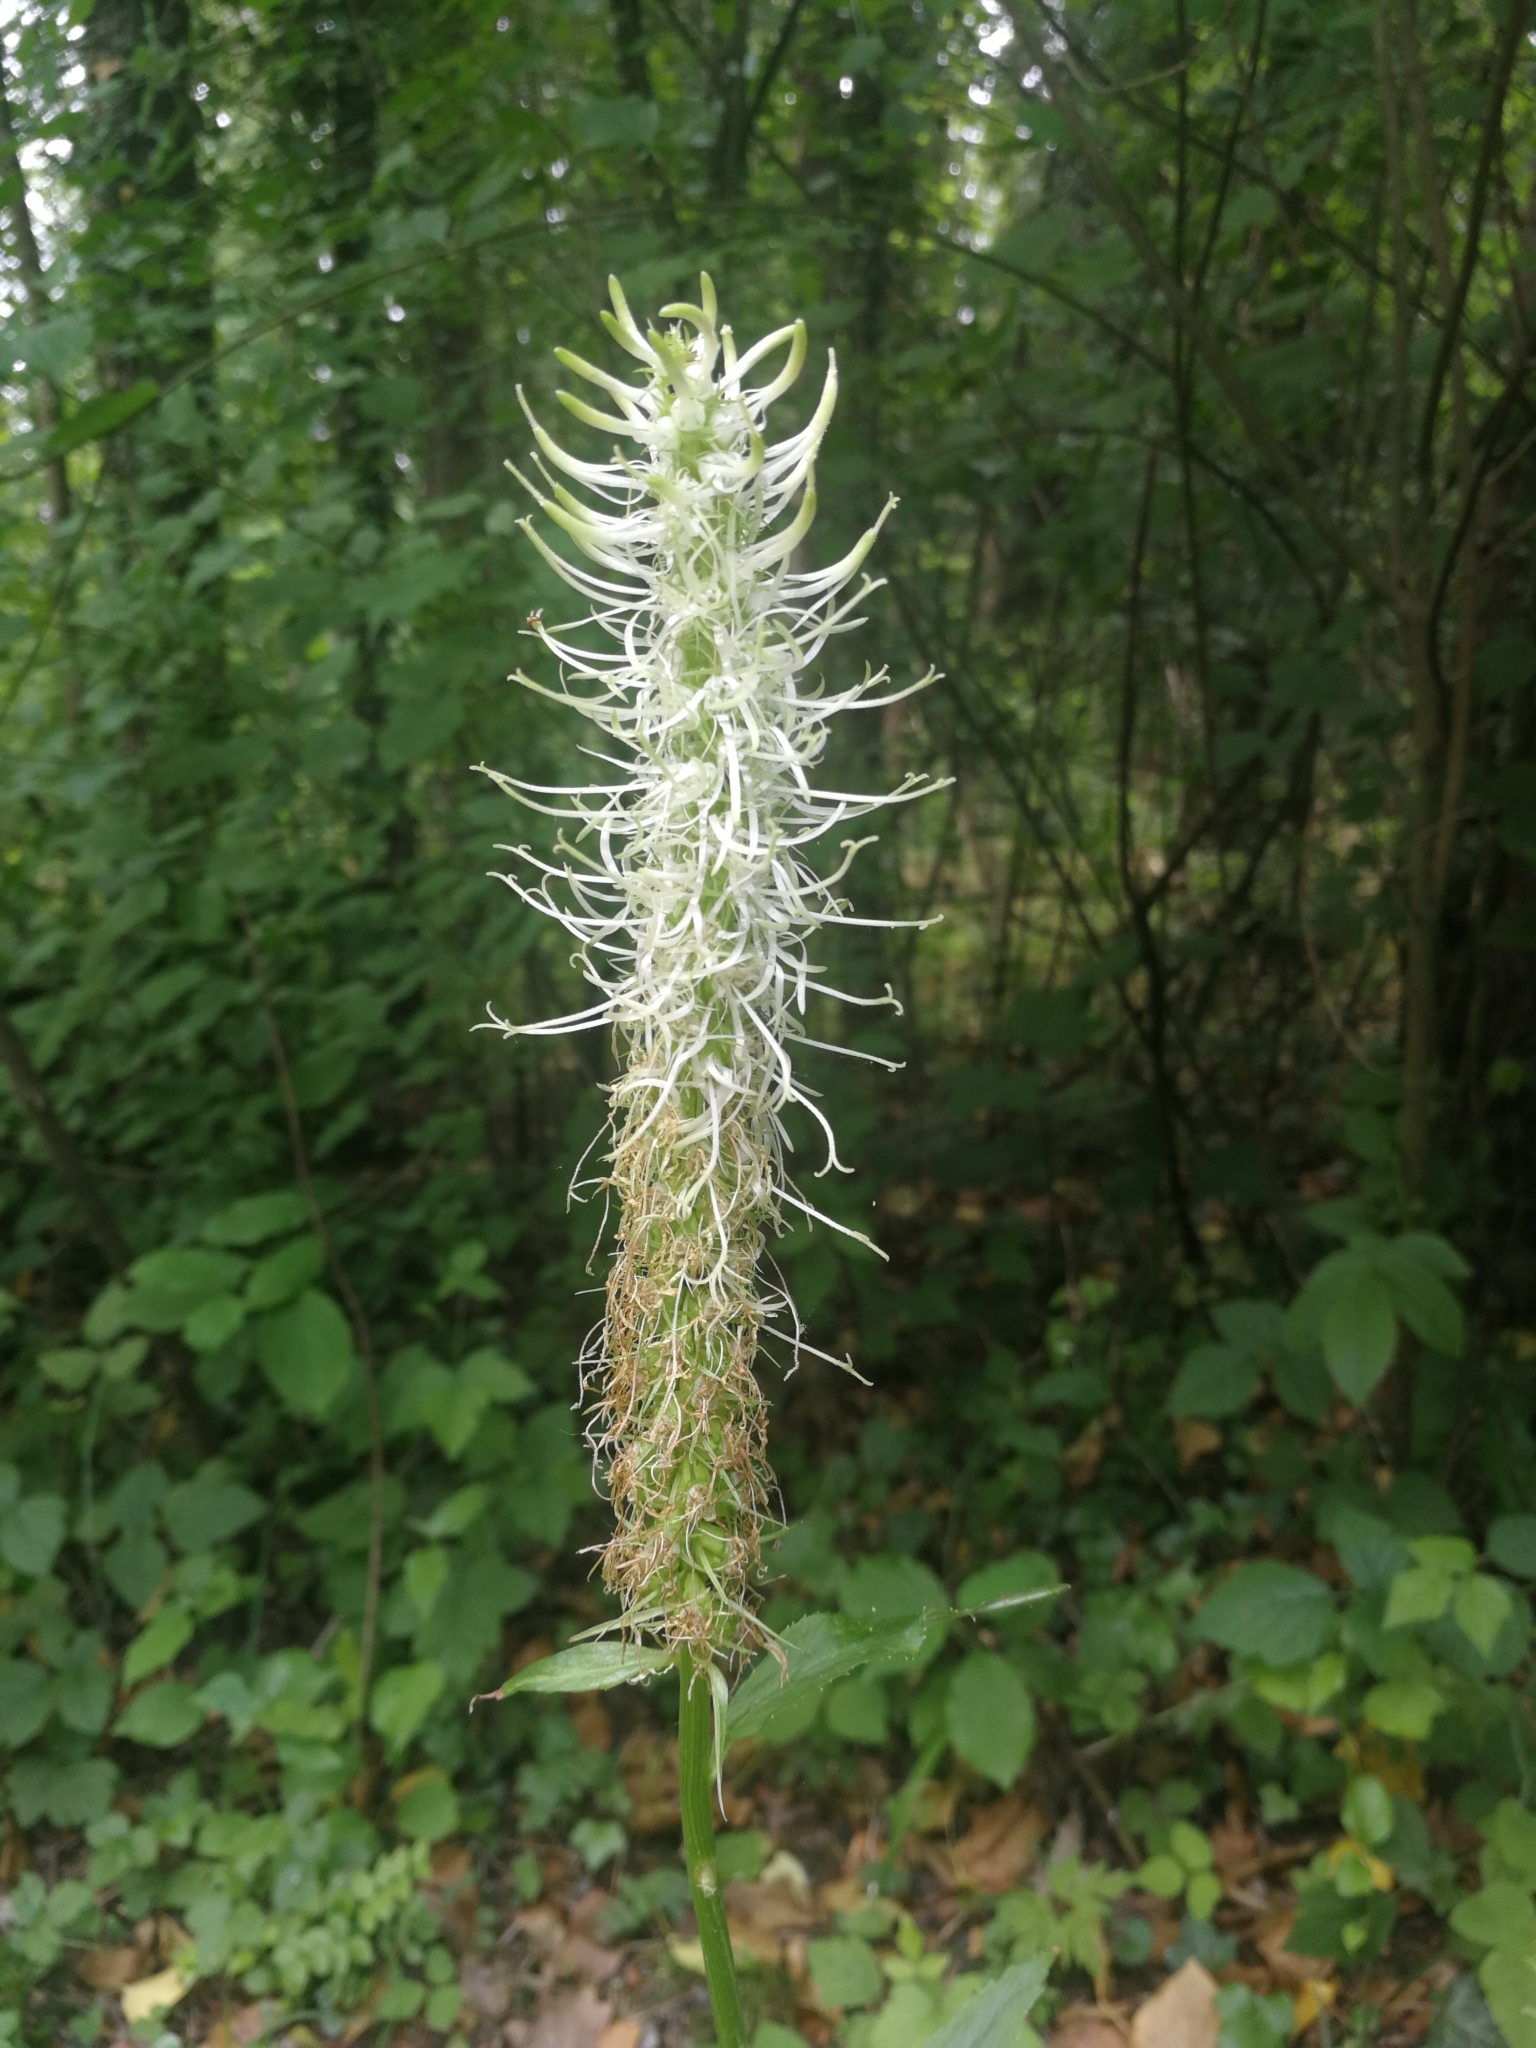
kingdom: Plantae
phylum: Tracheophyta
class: Magnoliopsida
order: Asterales
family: Campanulaceae
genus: Phyteuma
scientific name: Phyteuma spicatum
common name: Spiked rampion
